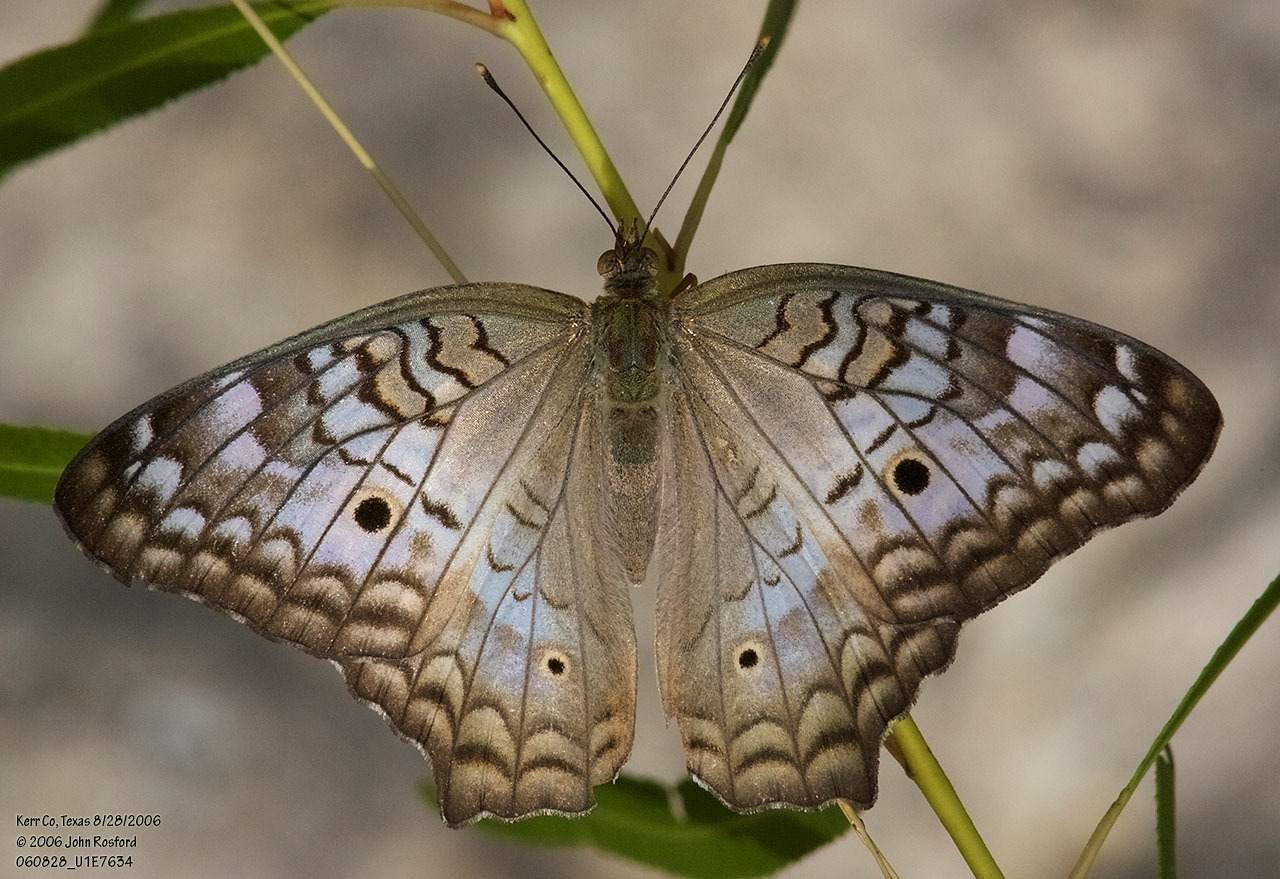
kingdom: Animalia
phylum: Arthropoda
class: Insecta
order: Lepidoptera
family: Nymphalidae
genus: Anartia
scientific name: Anartia jatrophae
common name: White peacock
